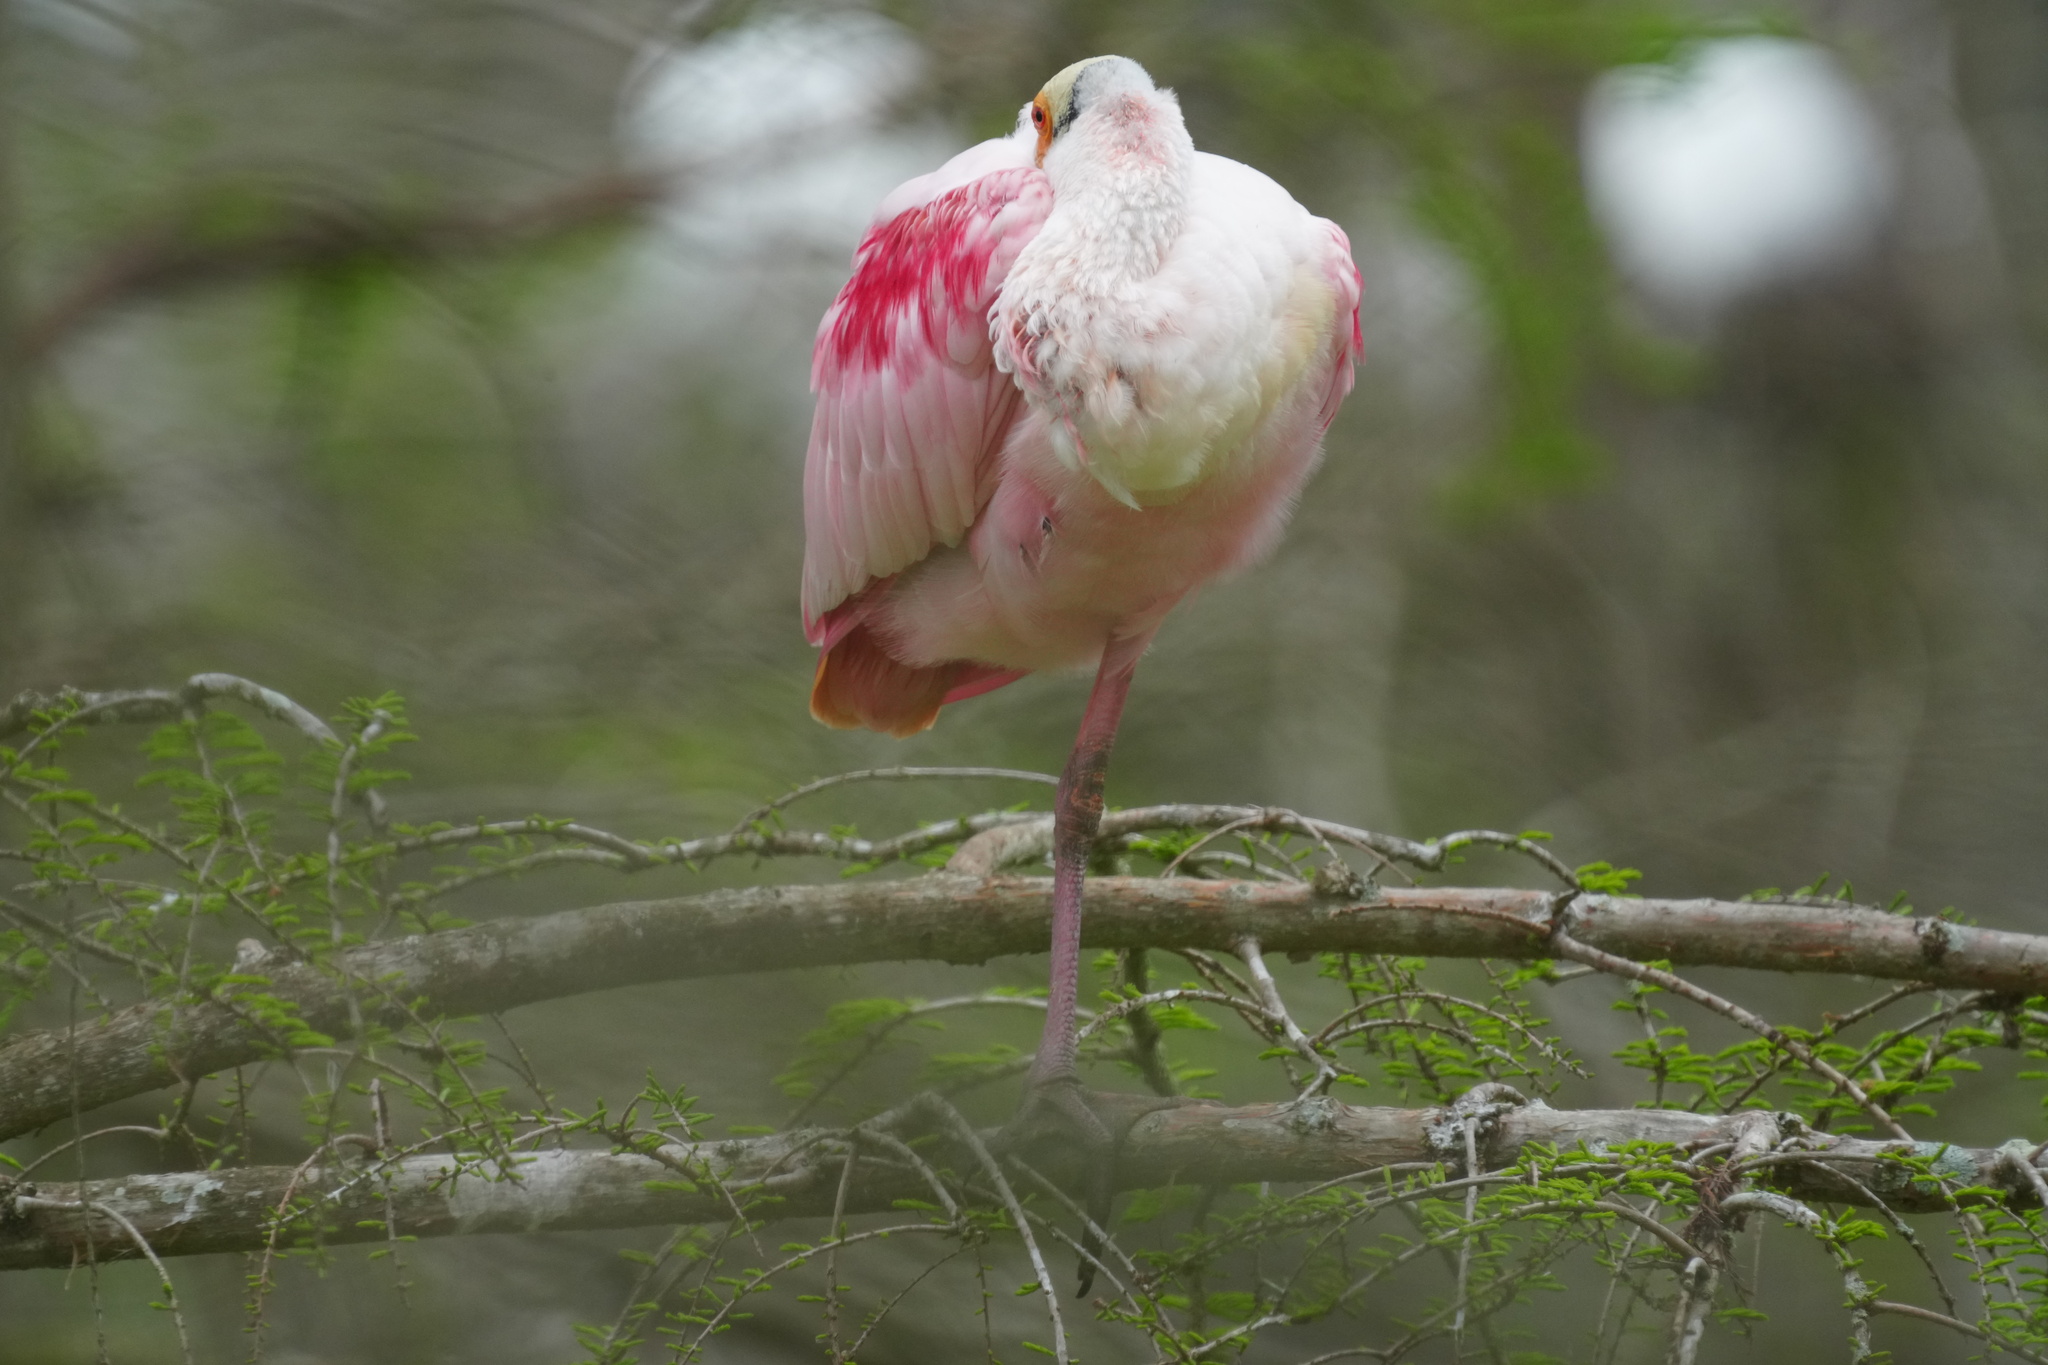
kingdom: Animalia
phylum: Chordata
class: Aves
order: Pelecaniformes
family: Threskiornithidae
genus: Platalea
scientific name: Platalea ajaja
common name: Roseate spoonbill
